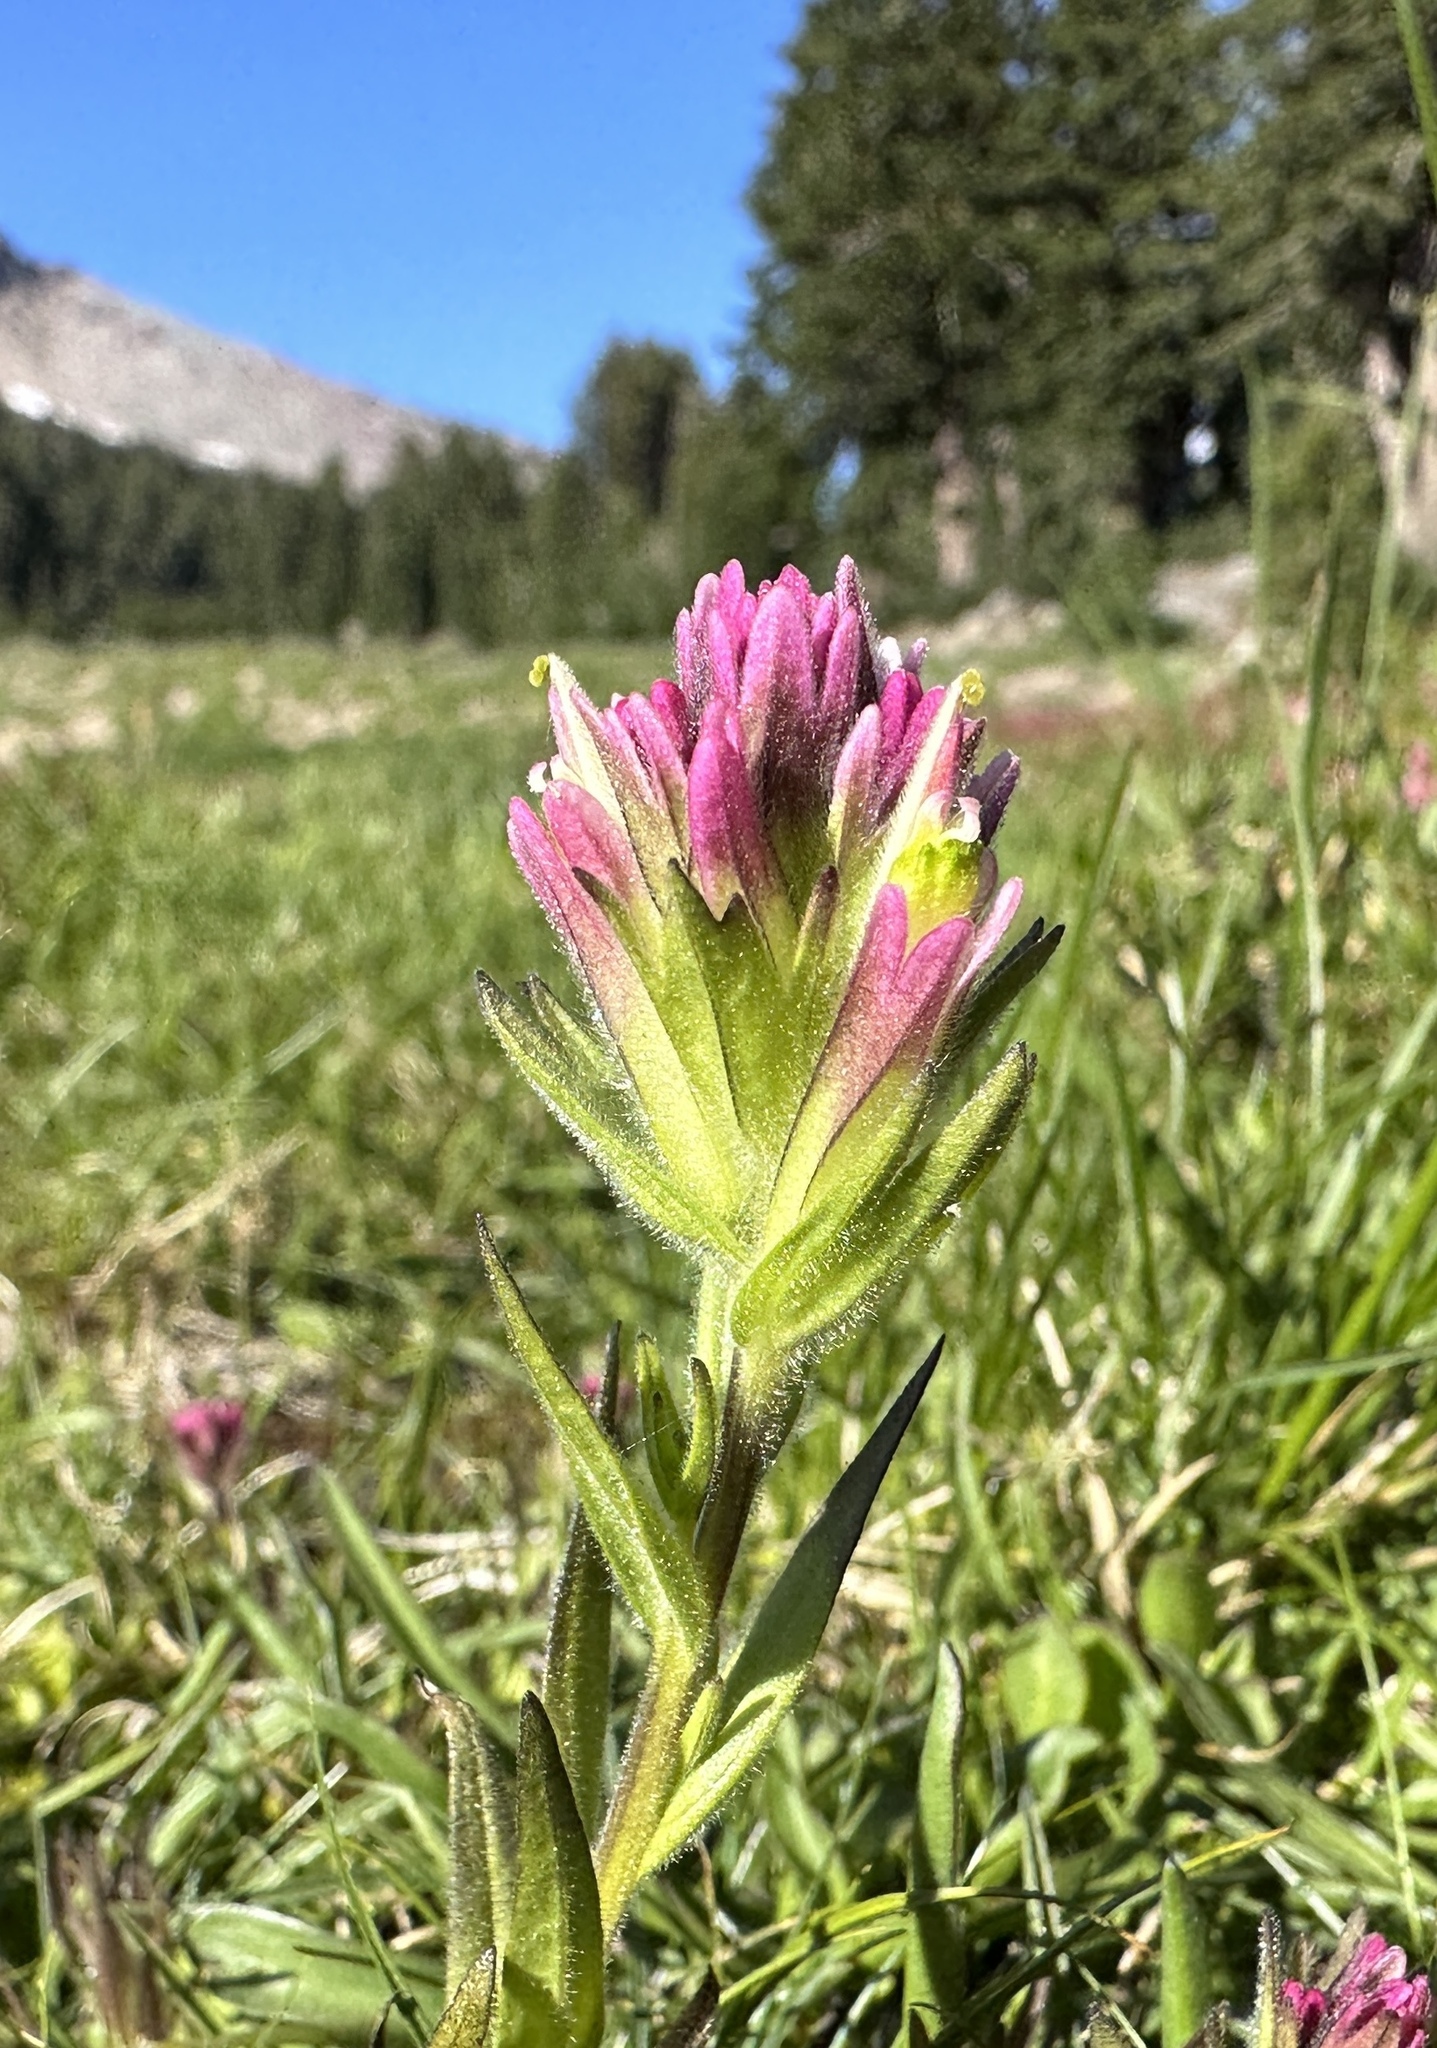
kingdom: Plantae
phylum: Tracheophyta
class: Magnoliopsida
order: Lamiales
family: Orobanchaceae
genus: Castilleja
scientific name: Castilleja lassenensis
